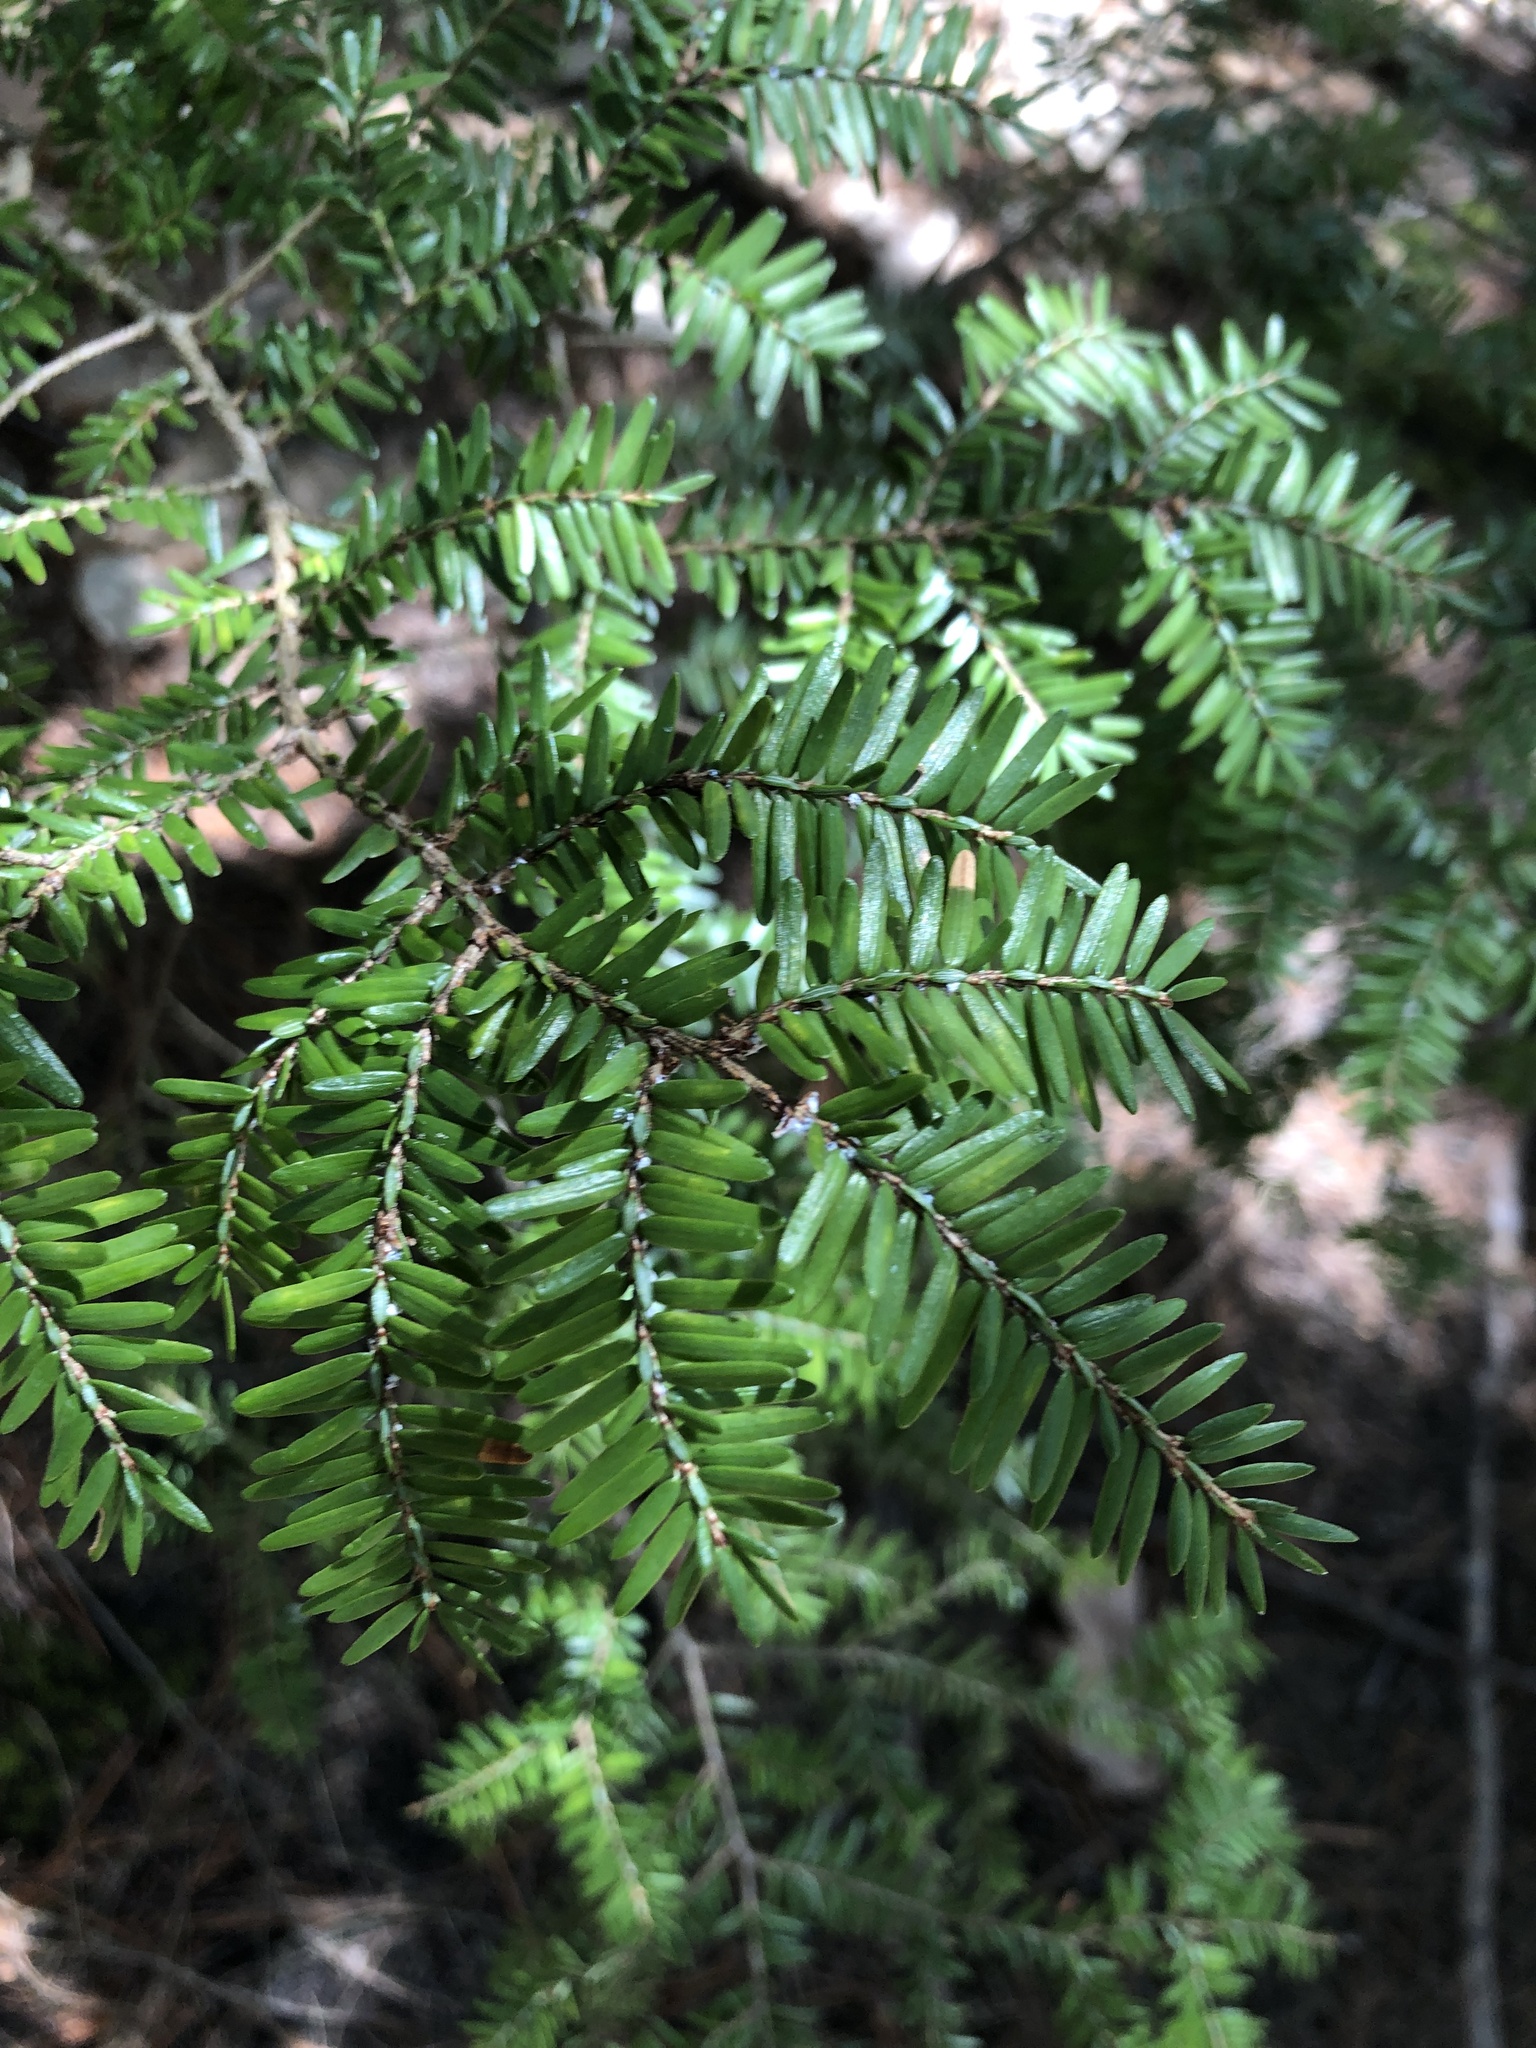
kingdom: Plantae
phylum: Tracheophyta
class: Pinopsida
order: Pinales
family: Pinaceae
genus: Tsuga
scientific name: Tsuga canadensis
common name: Eastern hemlock
